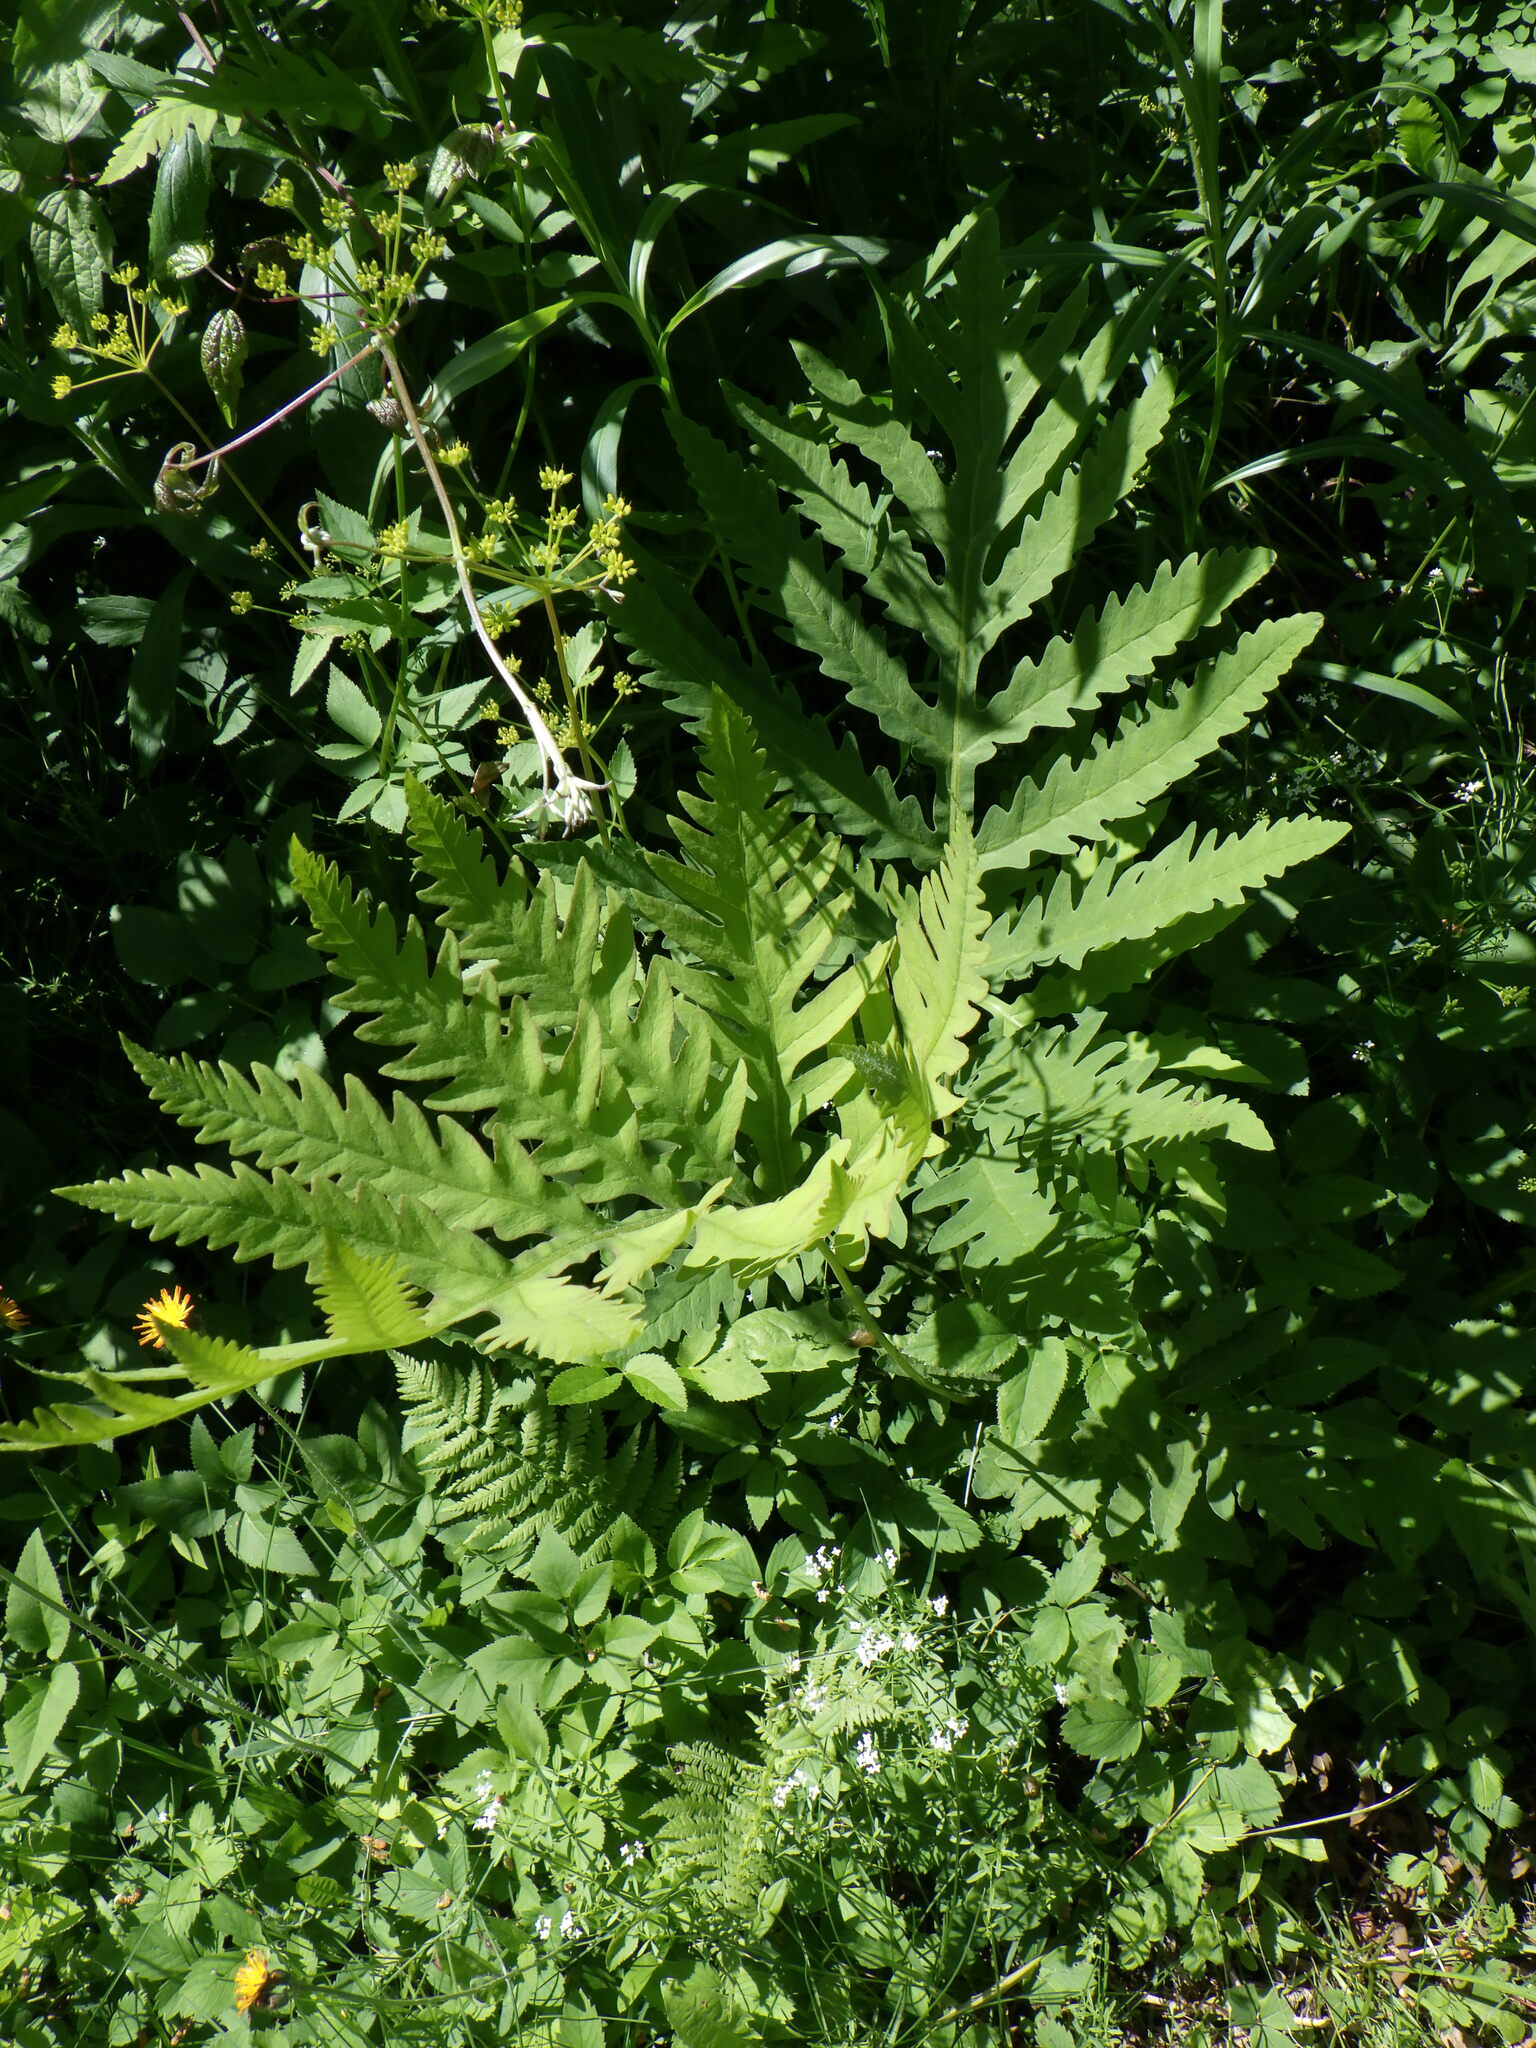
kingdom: Plantae
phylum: Tracheophyta
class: Polypodiopsida
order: Polypodiales
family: Onocleaceae
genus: Onoclea
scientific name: Onoclea sensibilis
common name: Sensitive fern
